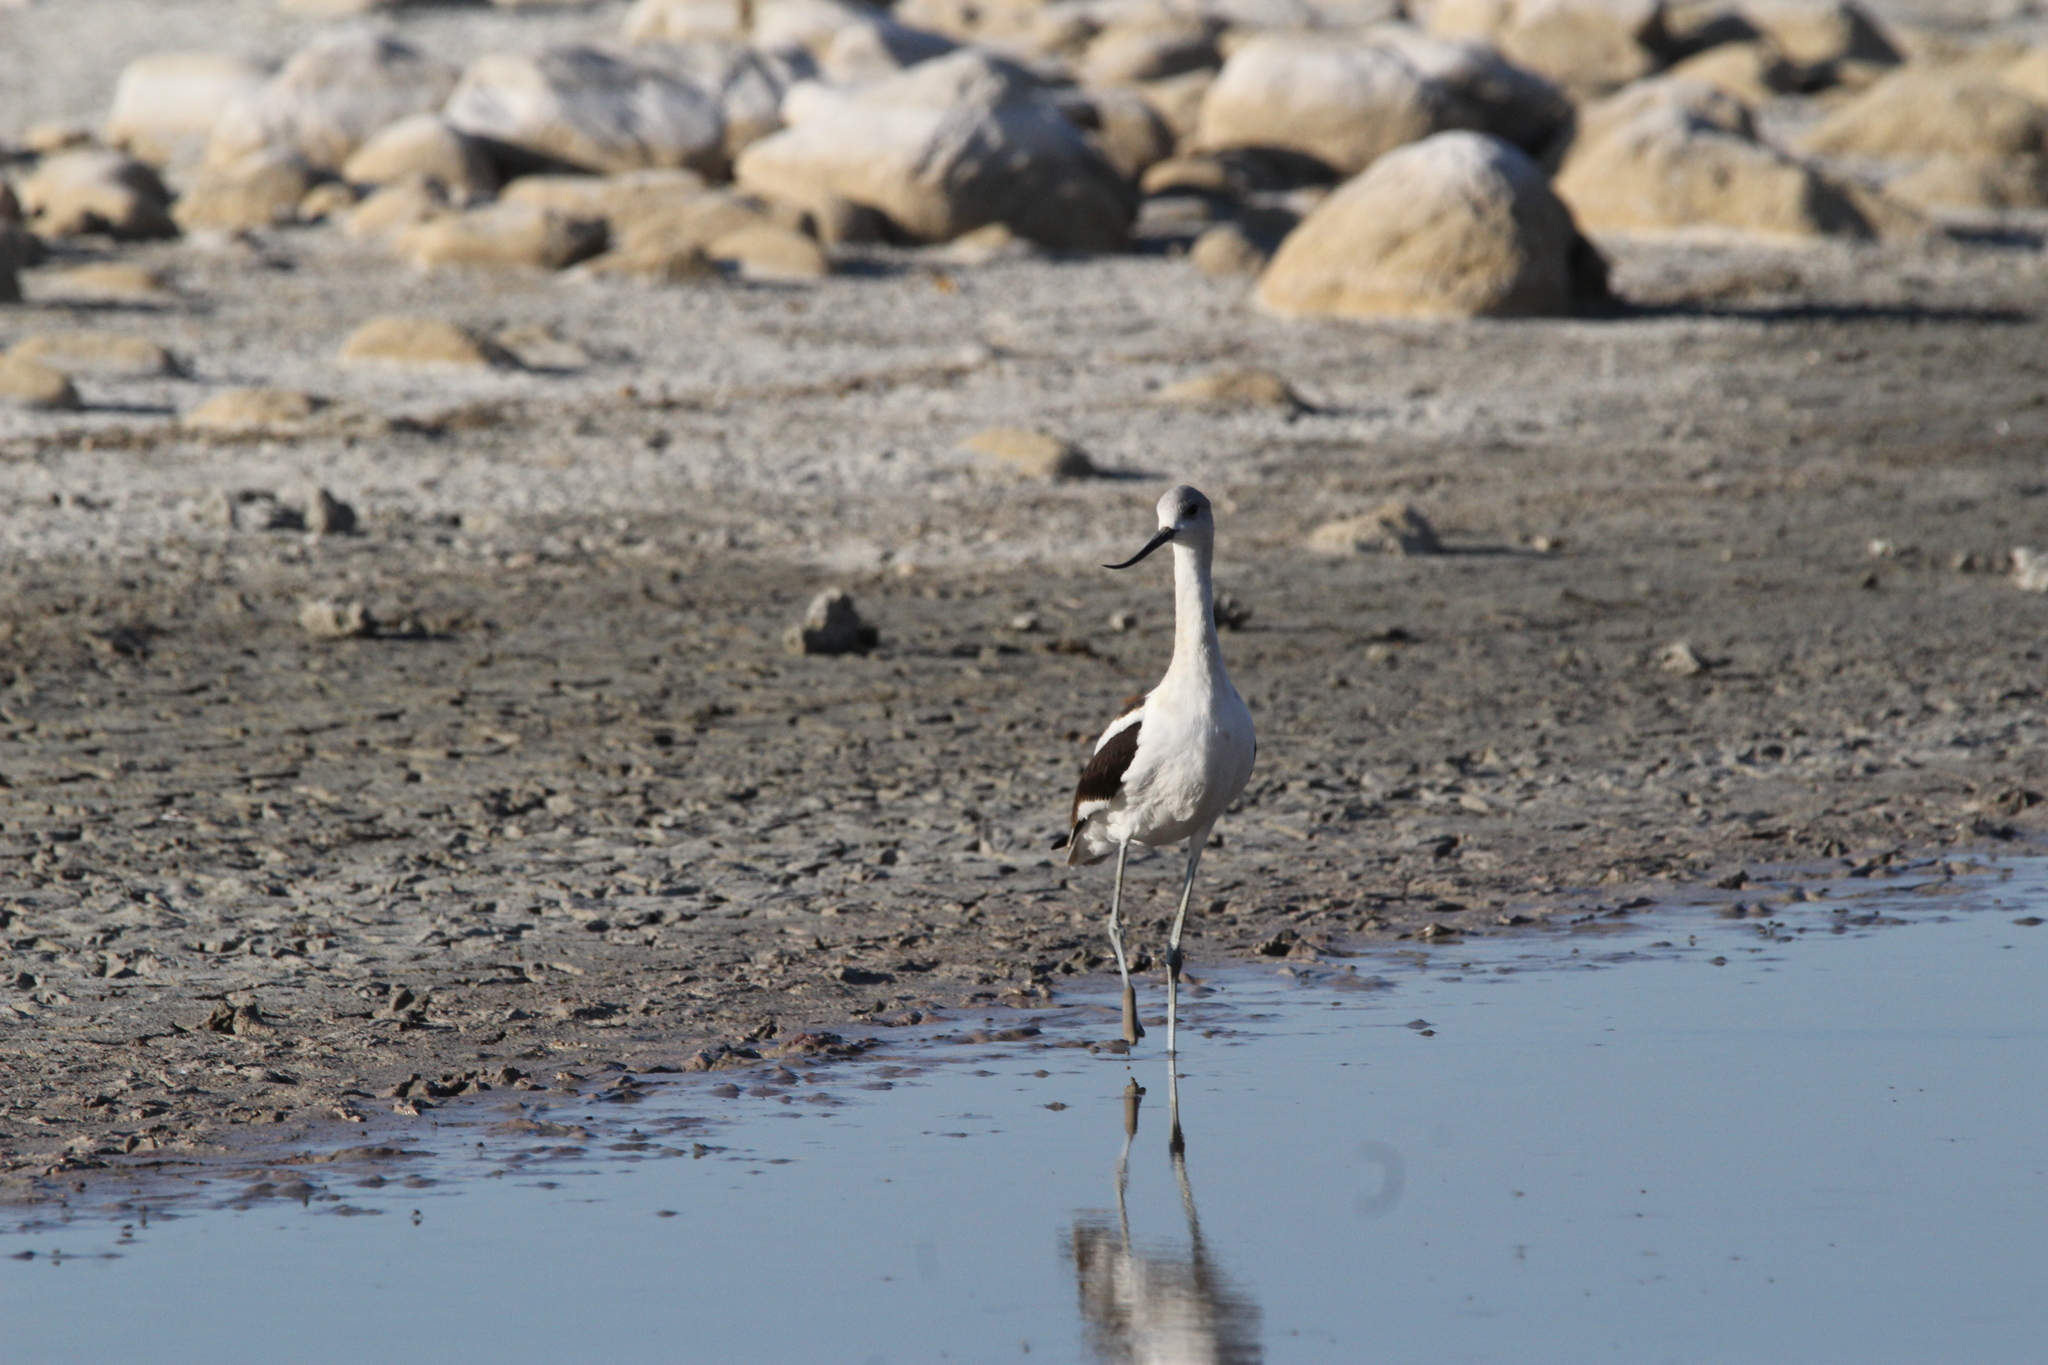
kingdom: Animalia
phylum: Chordata
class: Aves
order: Charadriiformes
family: Recurvirostridae
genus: Recurvirostra
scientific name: Recurvirostra americana
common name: American avocet
